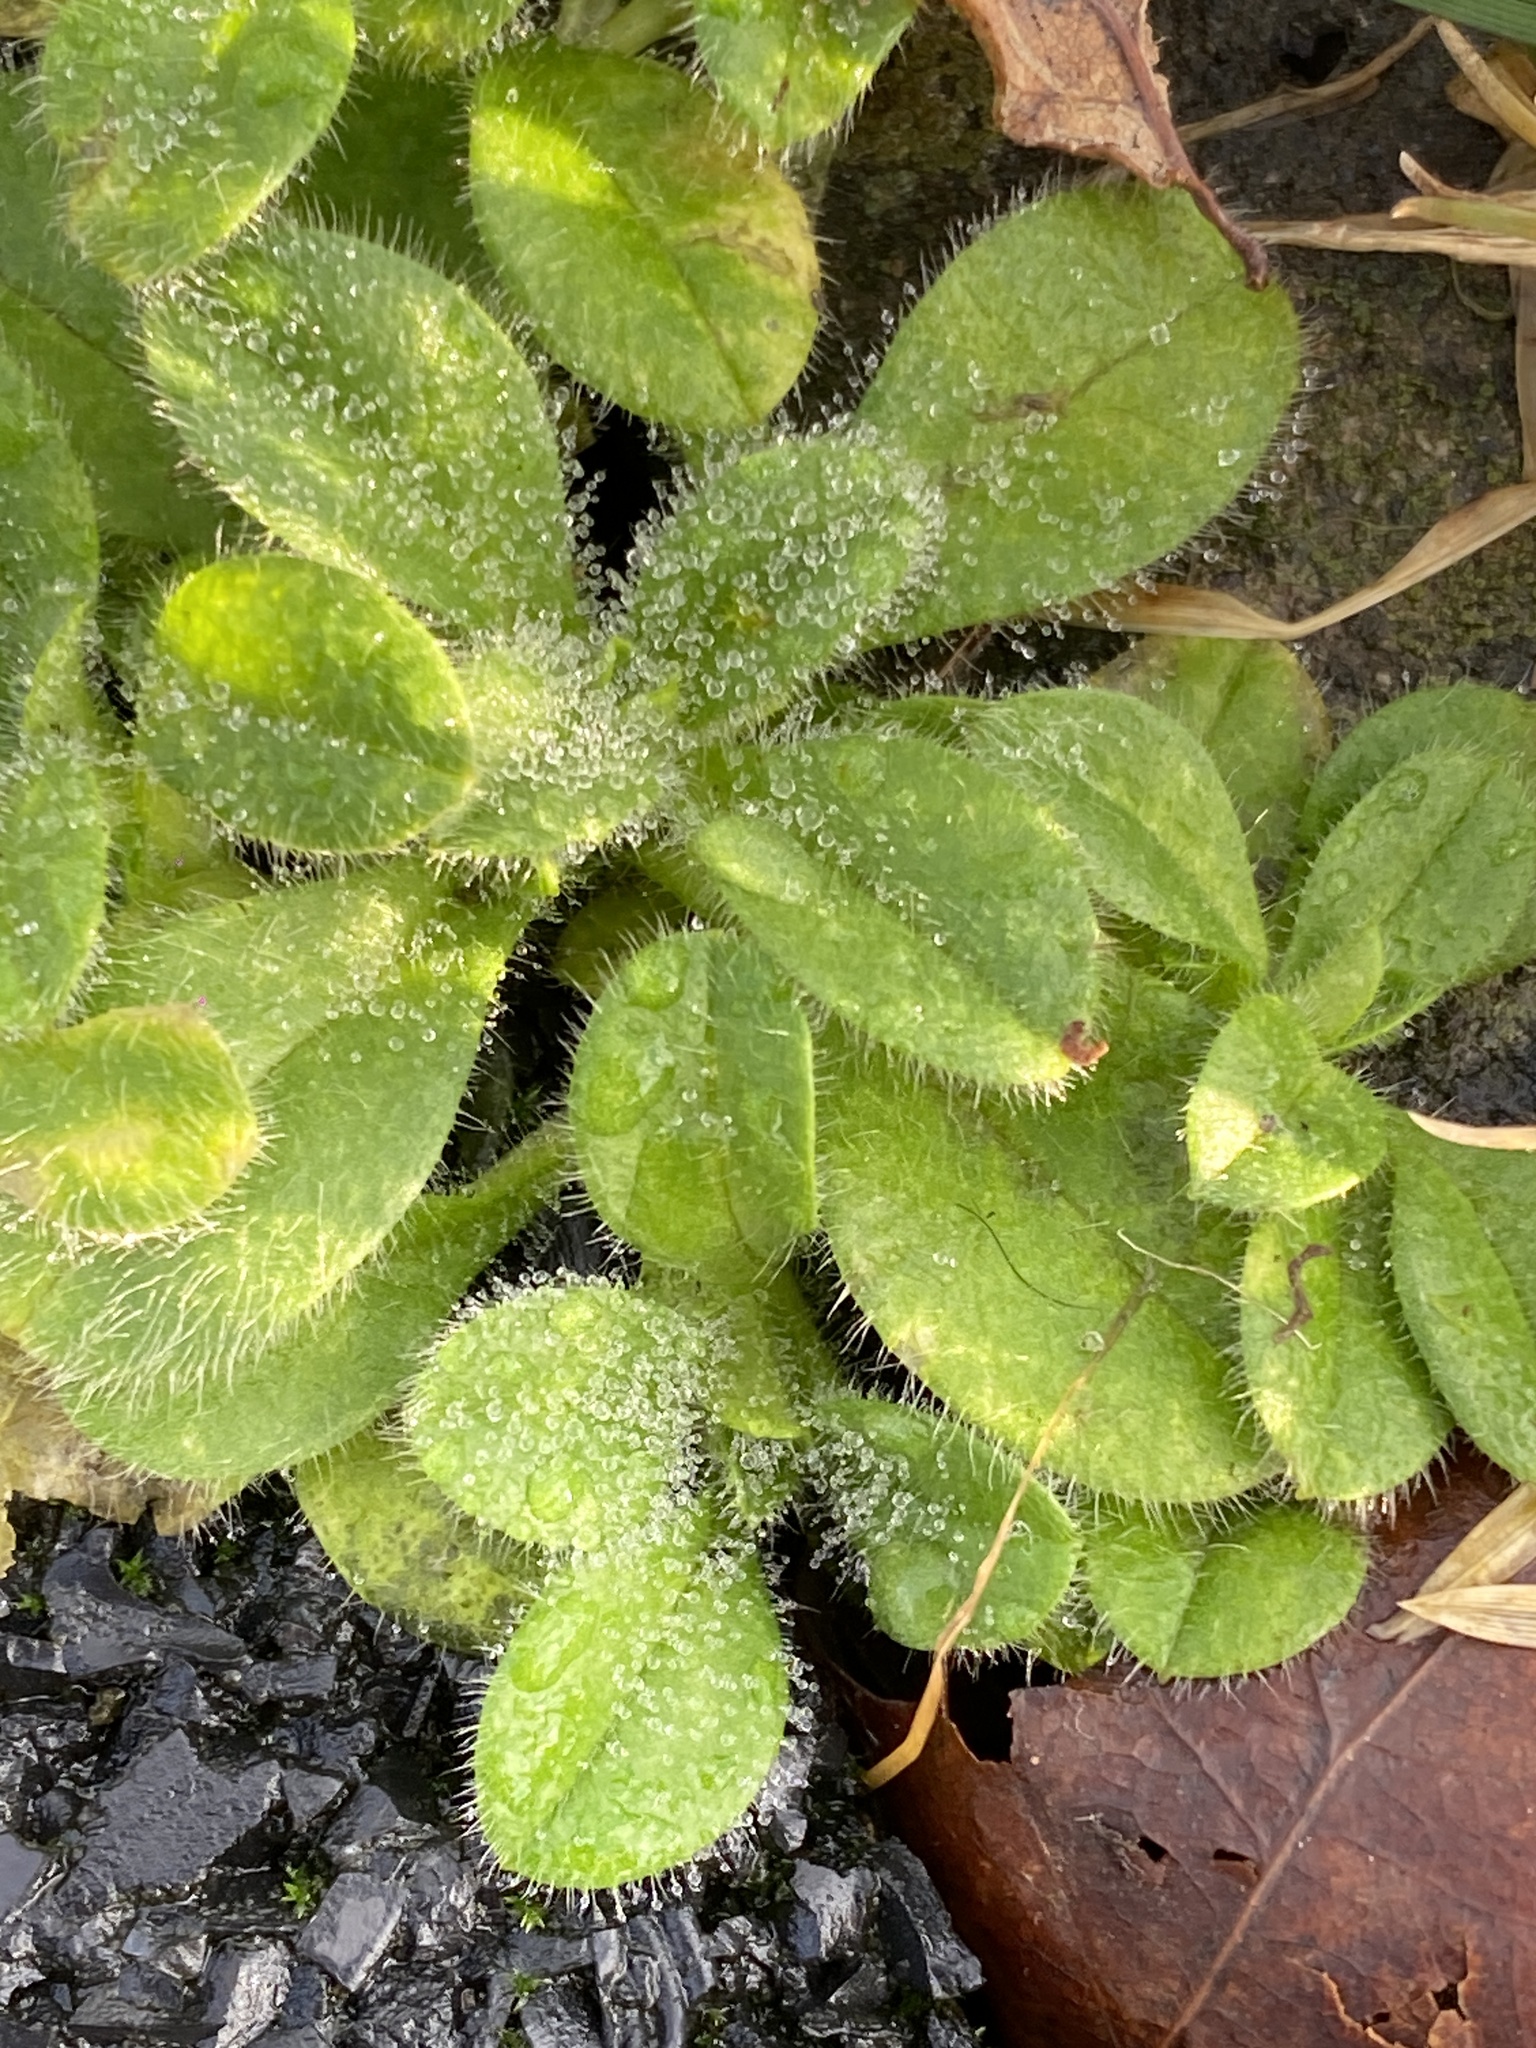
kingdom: Plantae
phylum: Tracheophyta
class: Magnoliopsida
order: Caryophyllales
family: Caryophyllaceae
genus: Cerastium
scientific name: Cerastium glomeratum
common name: Sticky chickweed
